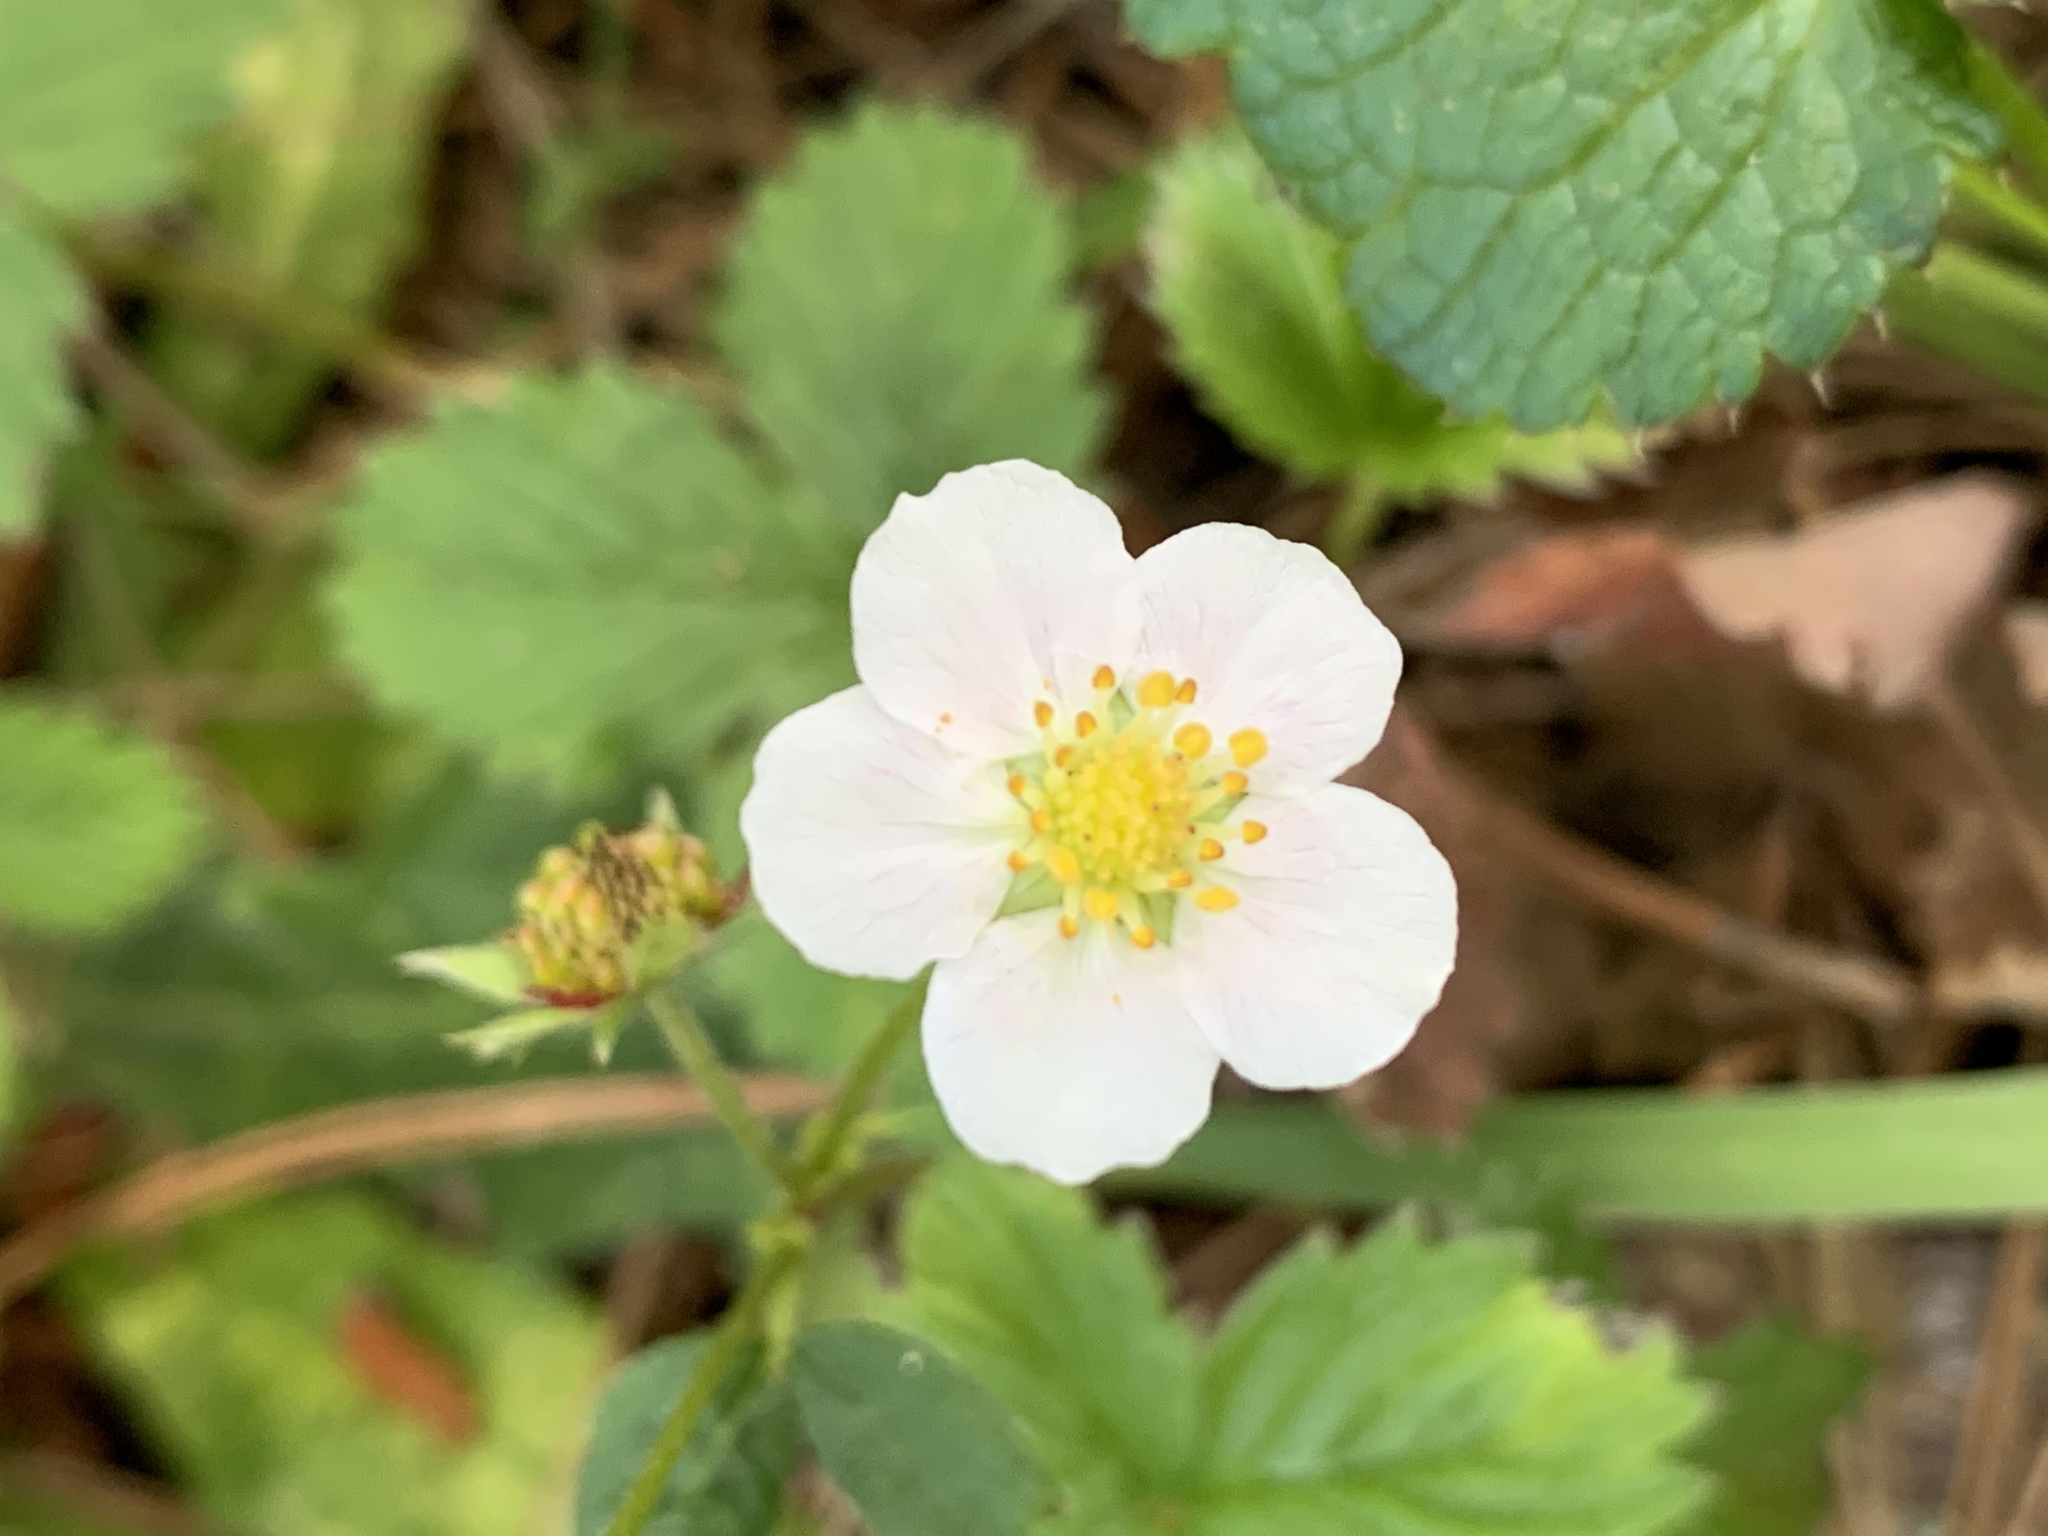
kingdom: Plantae
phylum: Tracheophyta
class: Magnoliopsida
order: Rosales
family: Rosaceae
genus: Fragaria
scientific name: Fragaria vesca
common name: Wild strawberry
